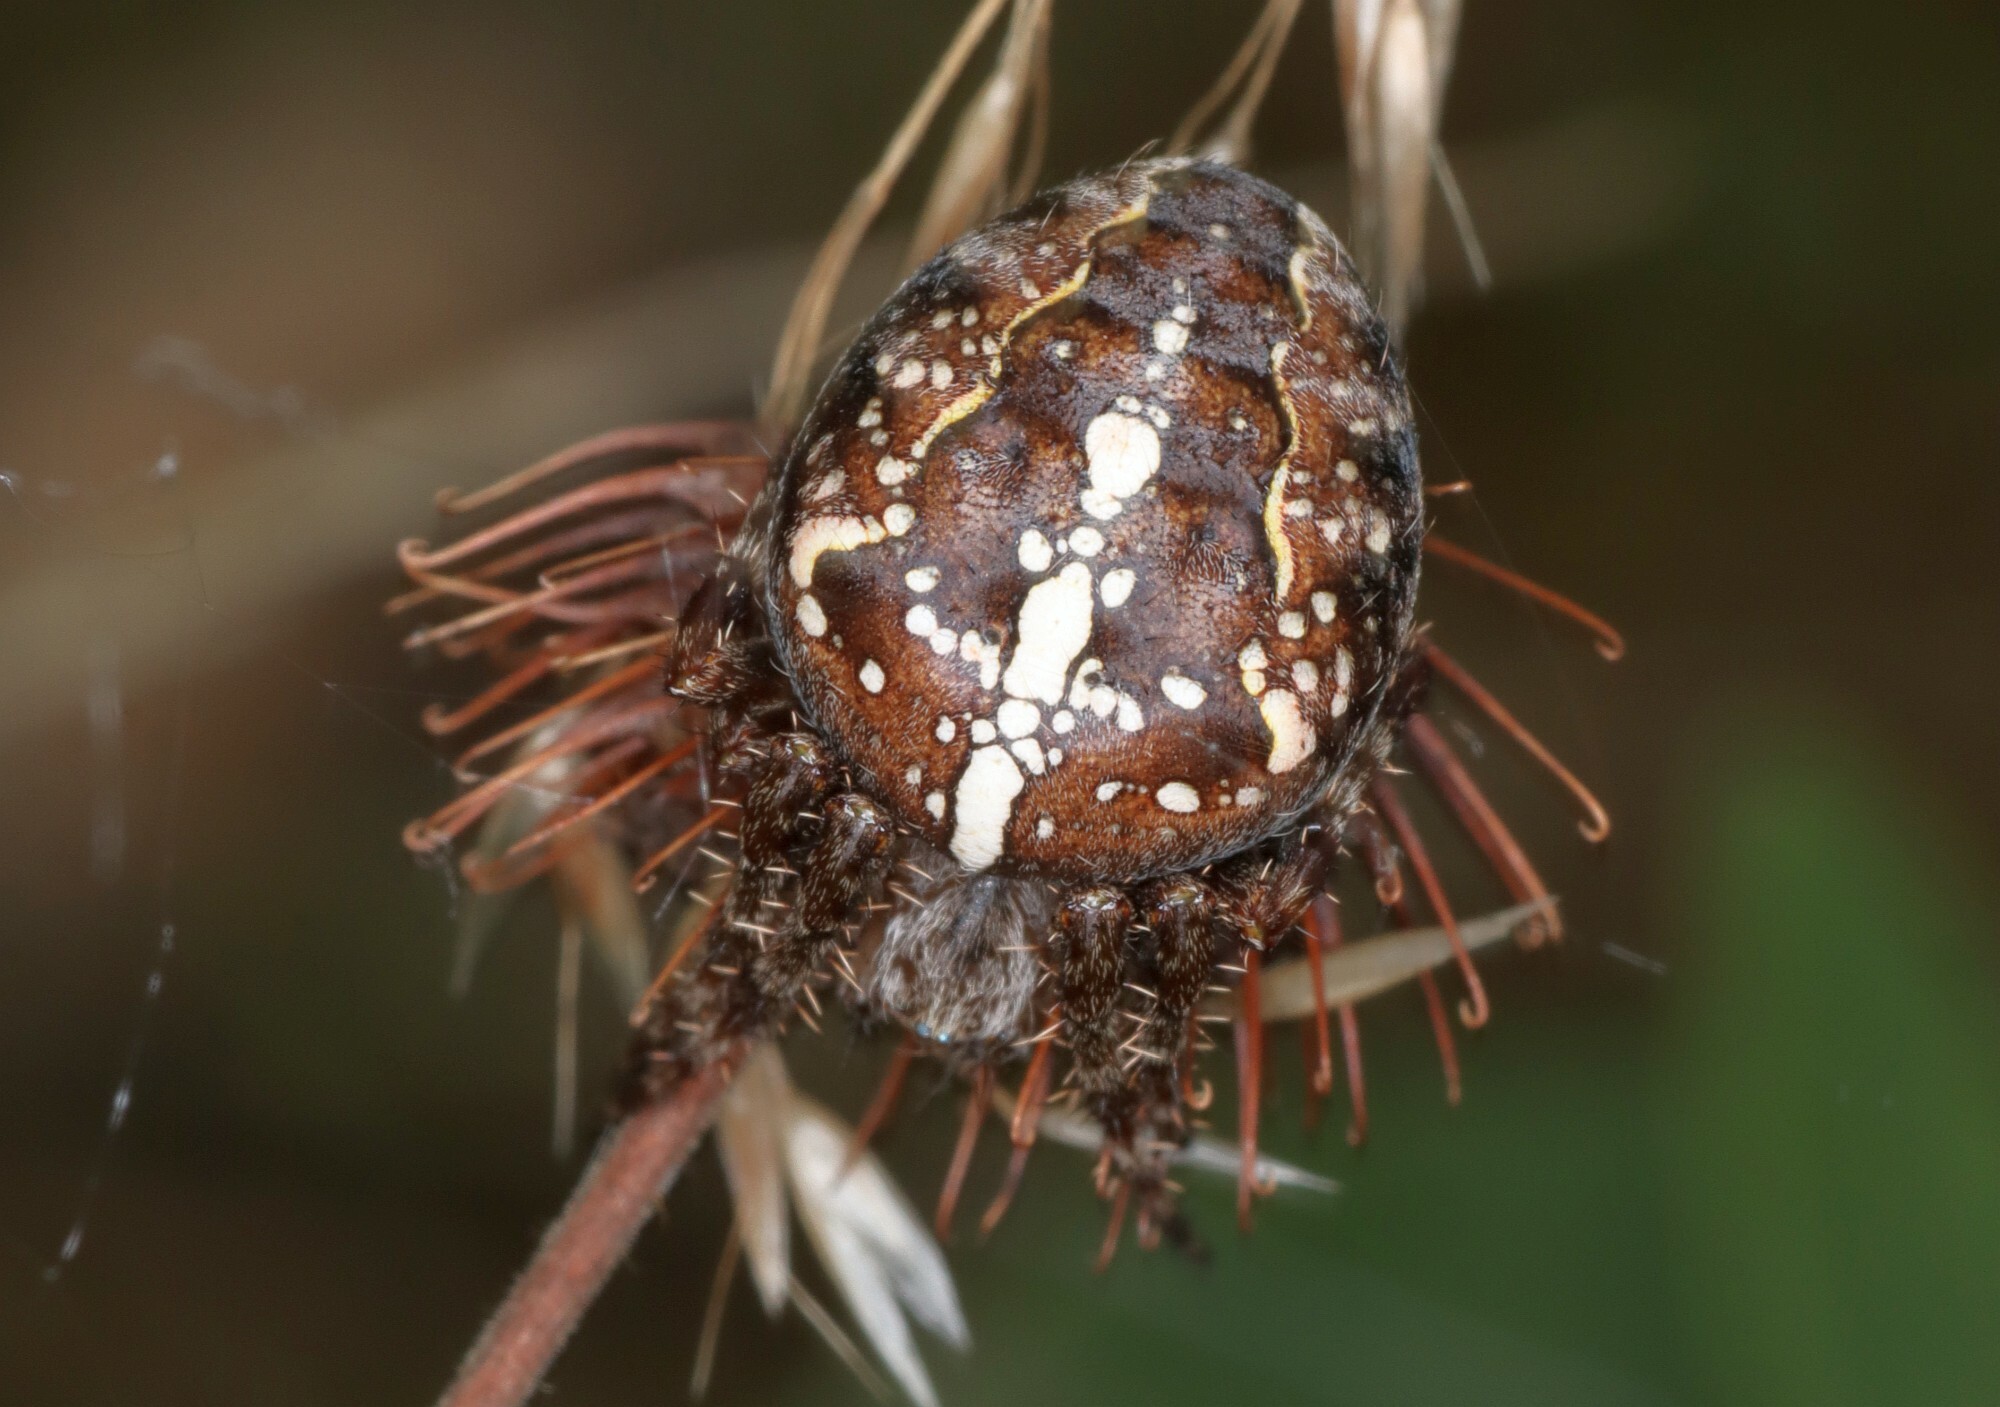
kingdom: Animalia
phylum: Arthropoda
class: Arachnida
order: Araneae
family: Araneidae
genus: Araneus
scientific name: Araneus diadematus
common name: Cross orbweaver
